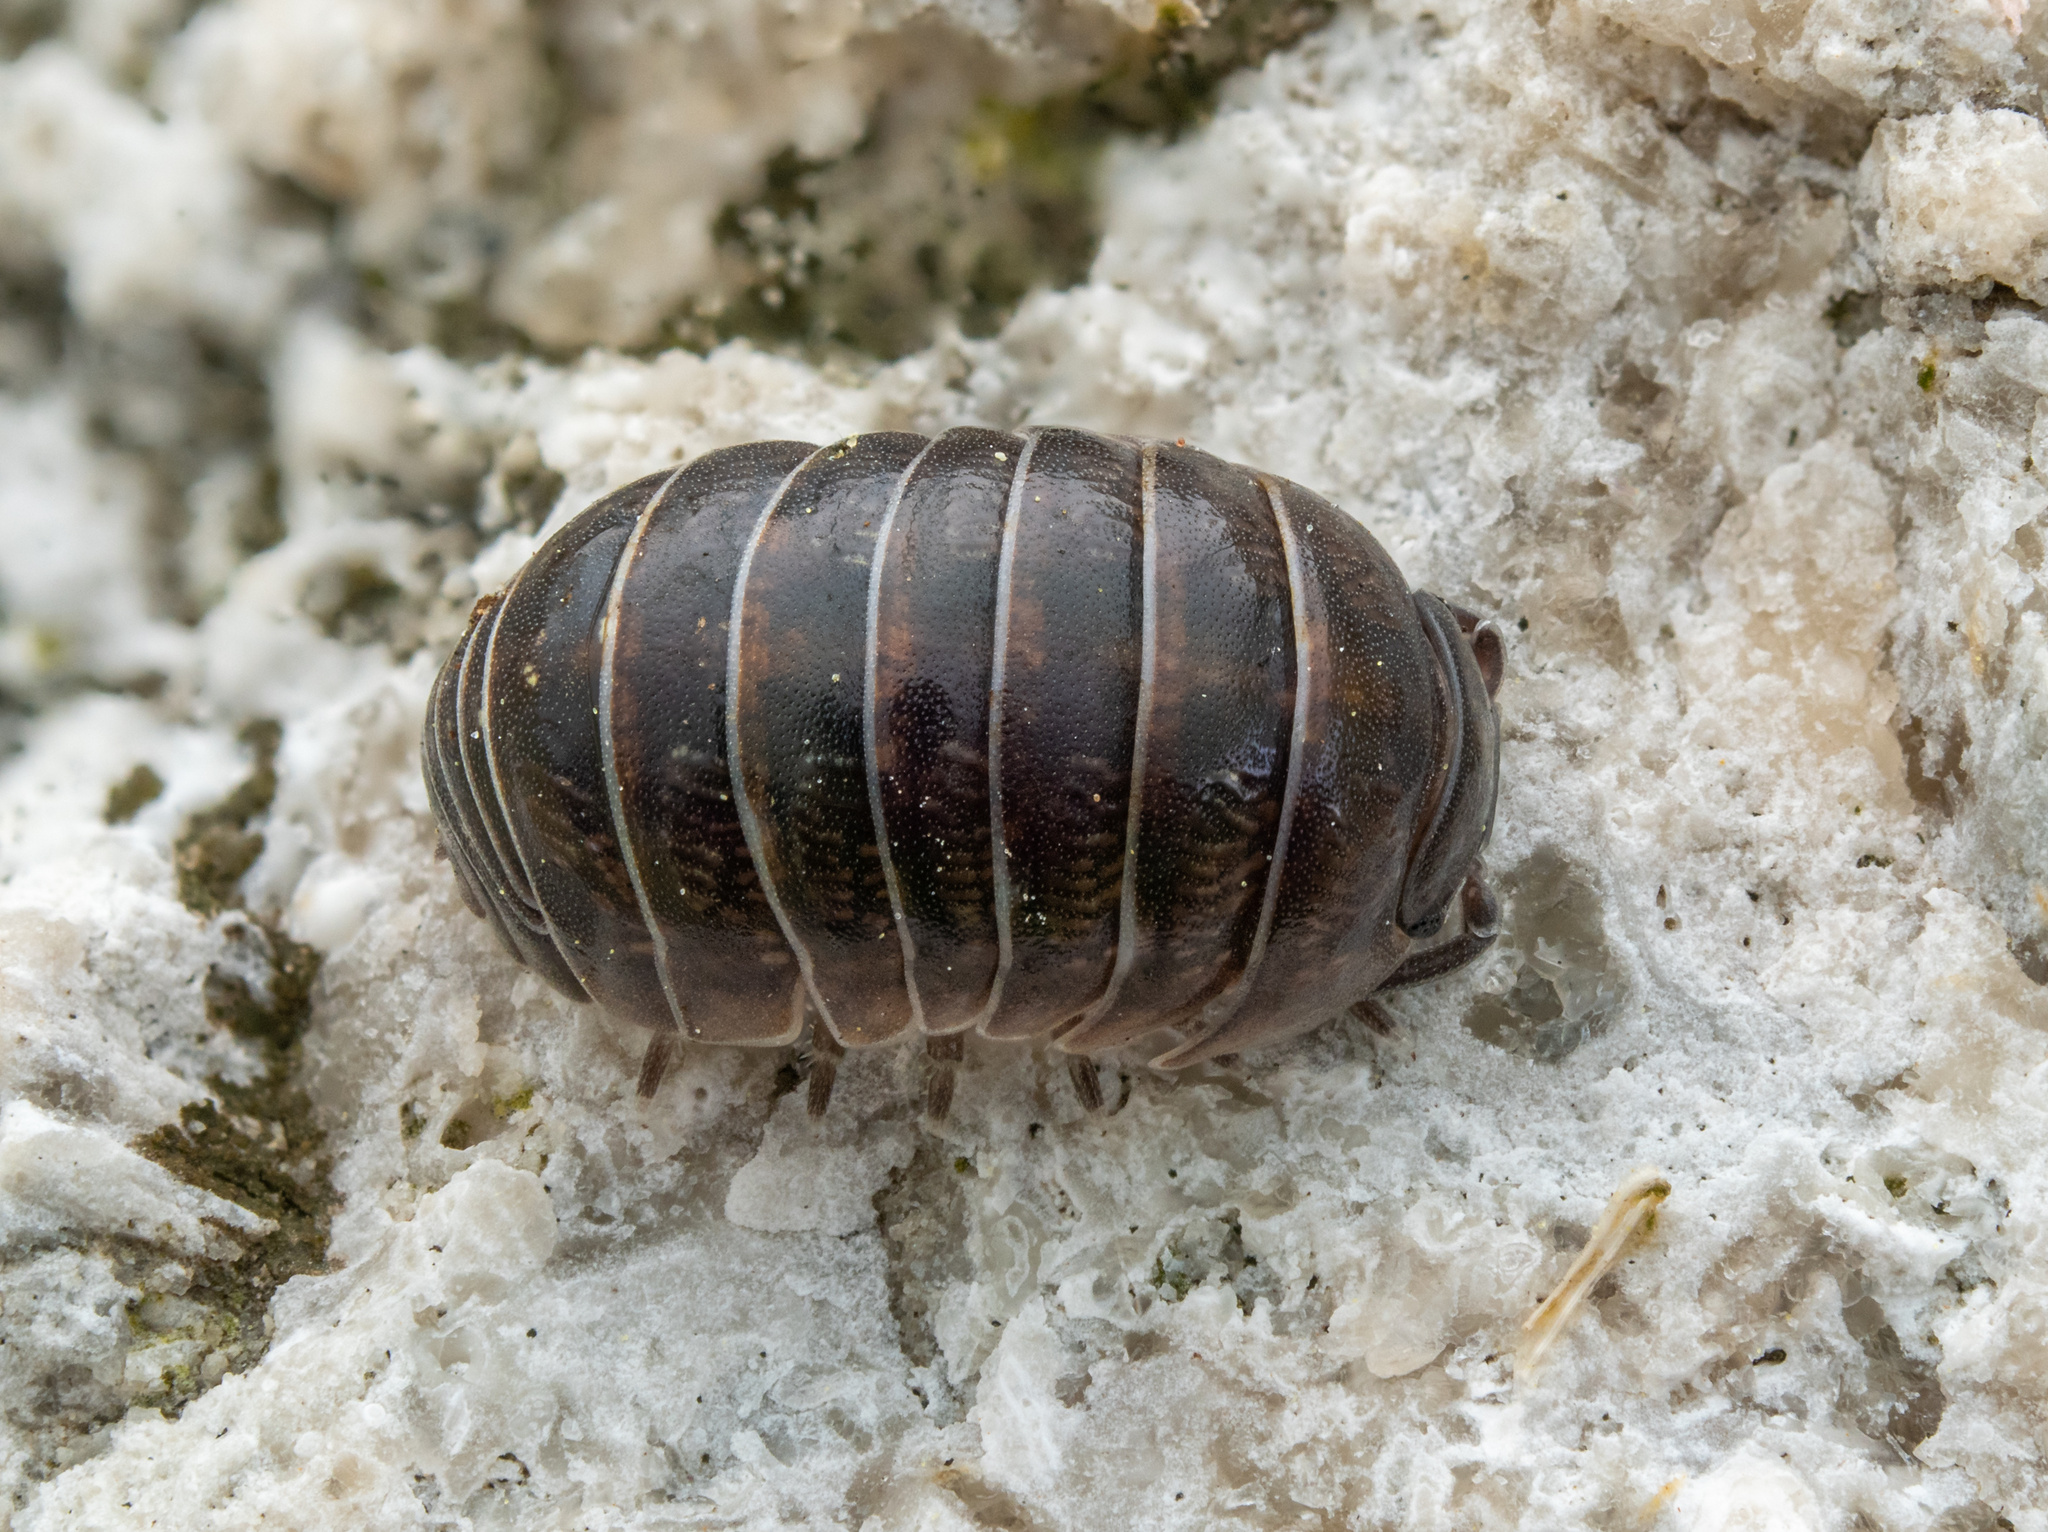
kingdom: Animalia
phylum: Arthropoda
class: Malacostraca
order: Isopoda
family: Armadillidiidae
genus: Armadillidium
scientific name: Armadillidium vulgare
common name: Common pill woodlouse
